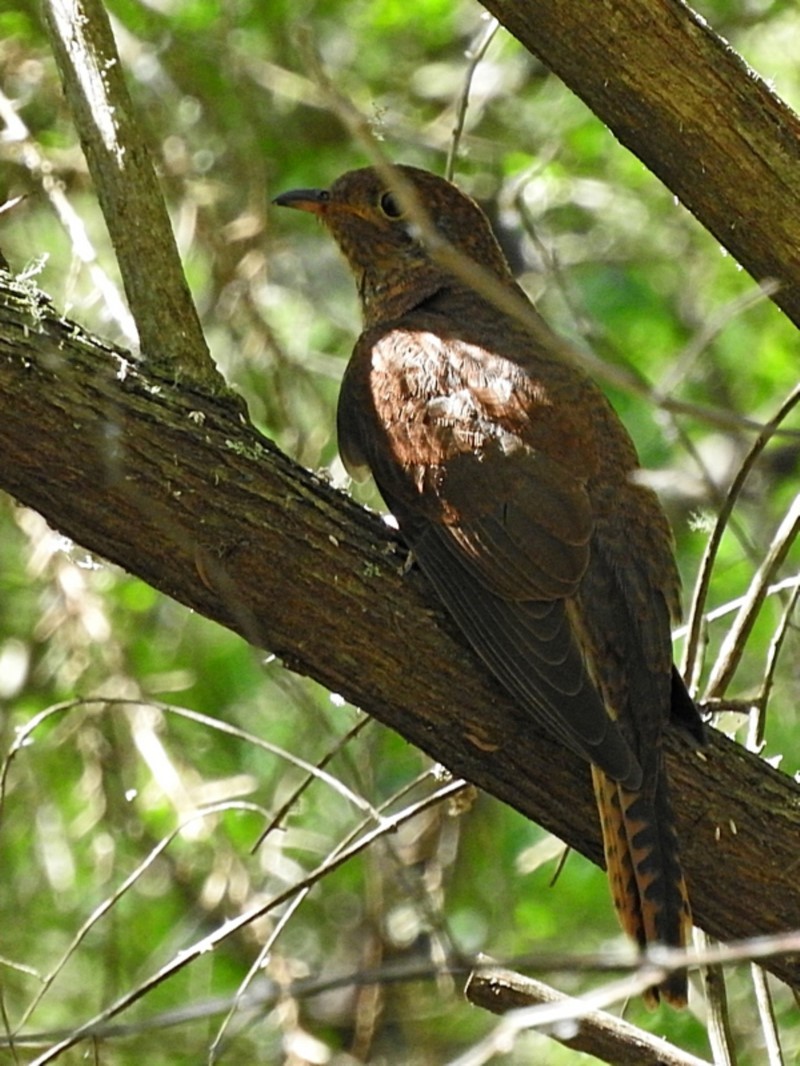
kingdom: Animalia
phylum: Chordata
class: Aves
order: Cuculiformes
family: Cuculidae
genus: Cacomantis
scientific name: Cacomantis flabelliformis
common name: Fan-tailed cuckoo
